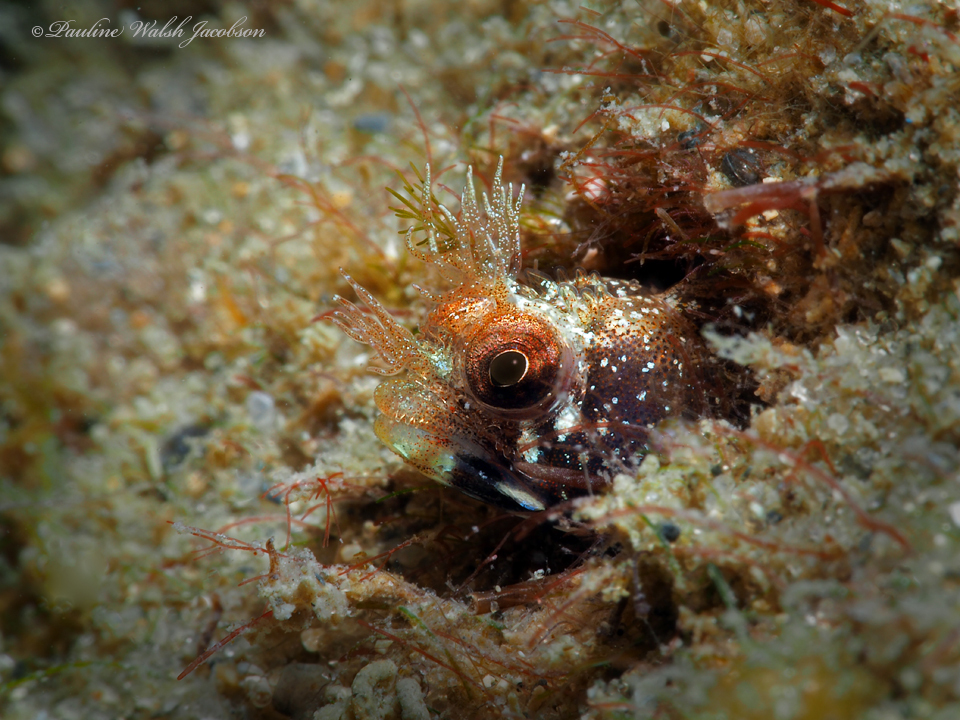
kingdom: Animalia
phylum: Chordata
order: Perciformes
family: Chaenopsidae
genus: Acanthemblemaria
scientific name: Acanthemblemaria aspera
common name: Roughhead blenny
